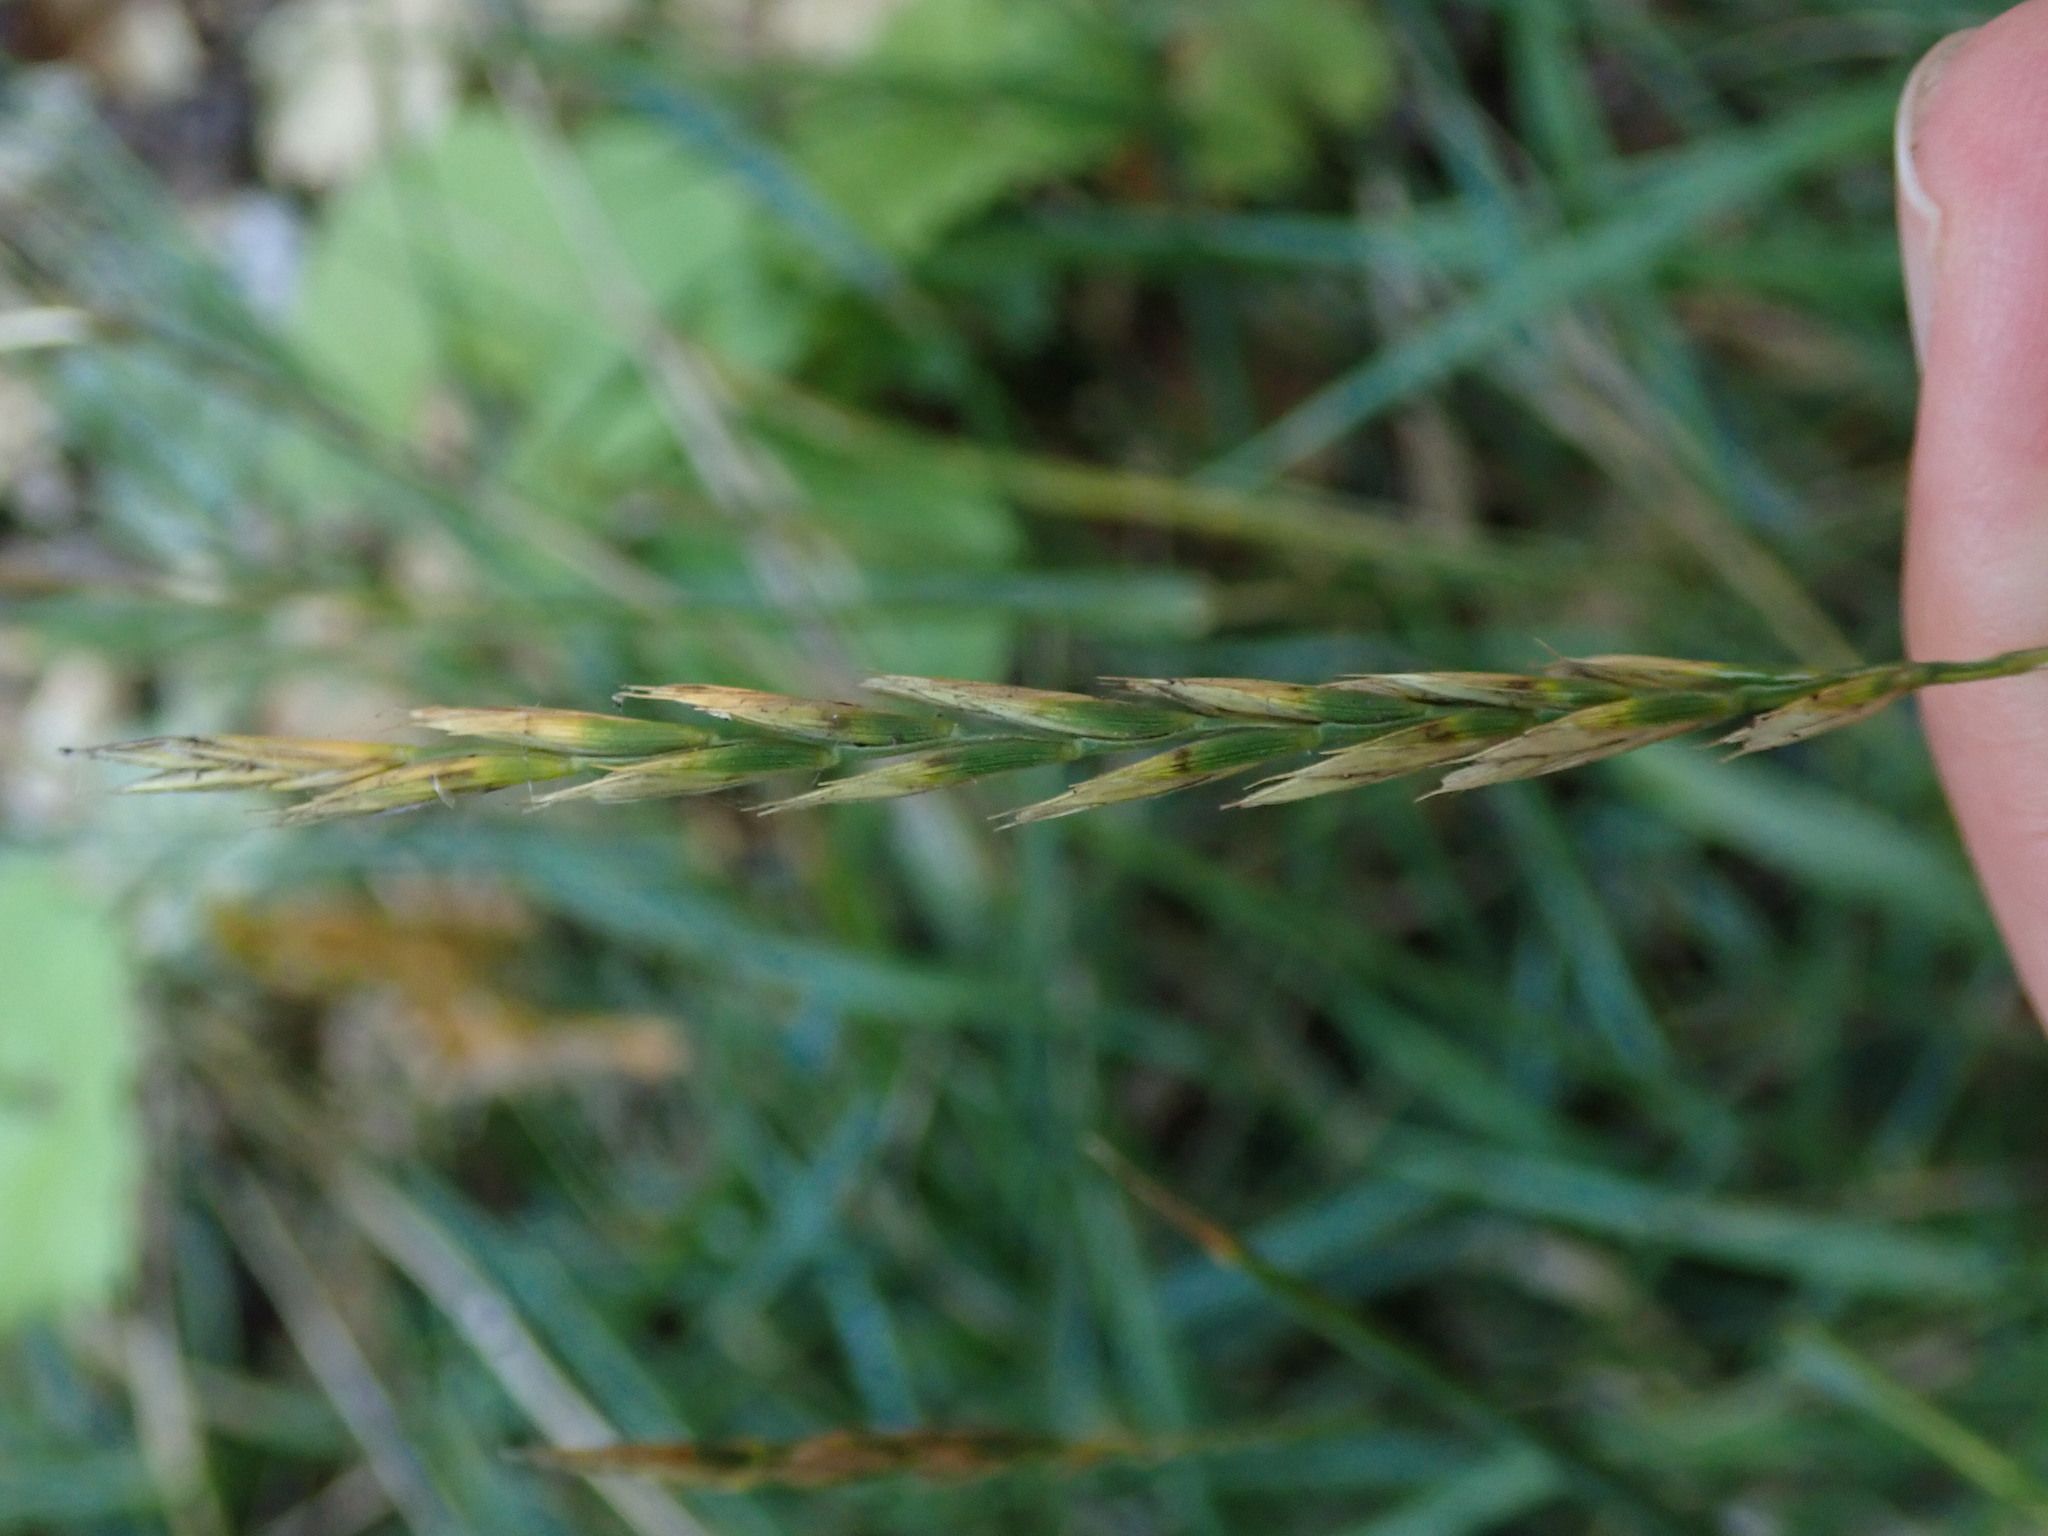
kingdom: Plantae
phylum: Tracheophyta
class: Liliopsida
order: Poales
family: Poaceae
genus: Elymus
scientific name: Elymus repens
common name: Quackgrass
